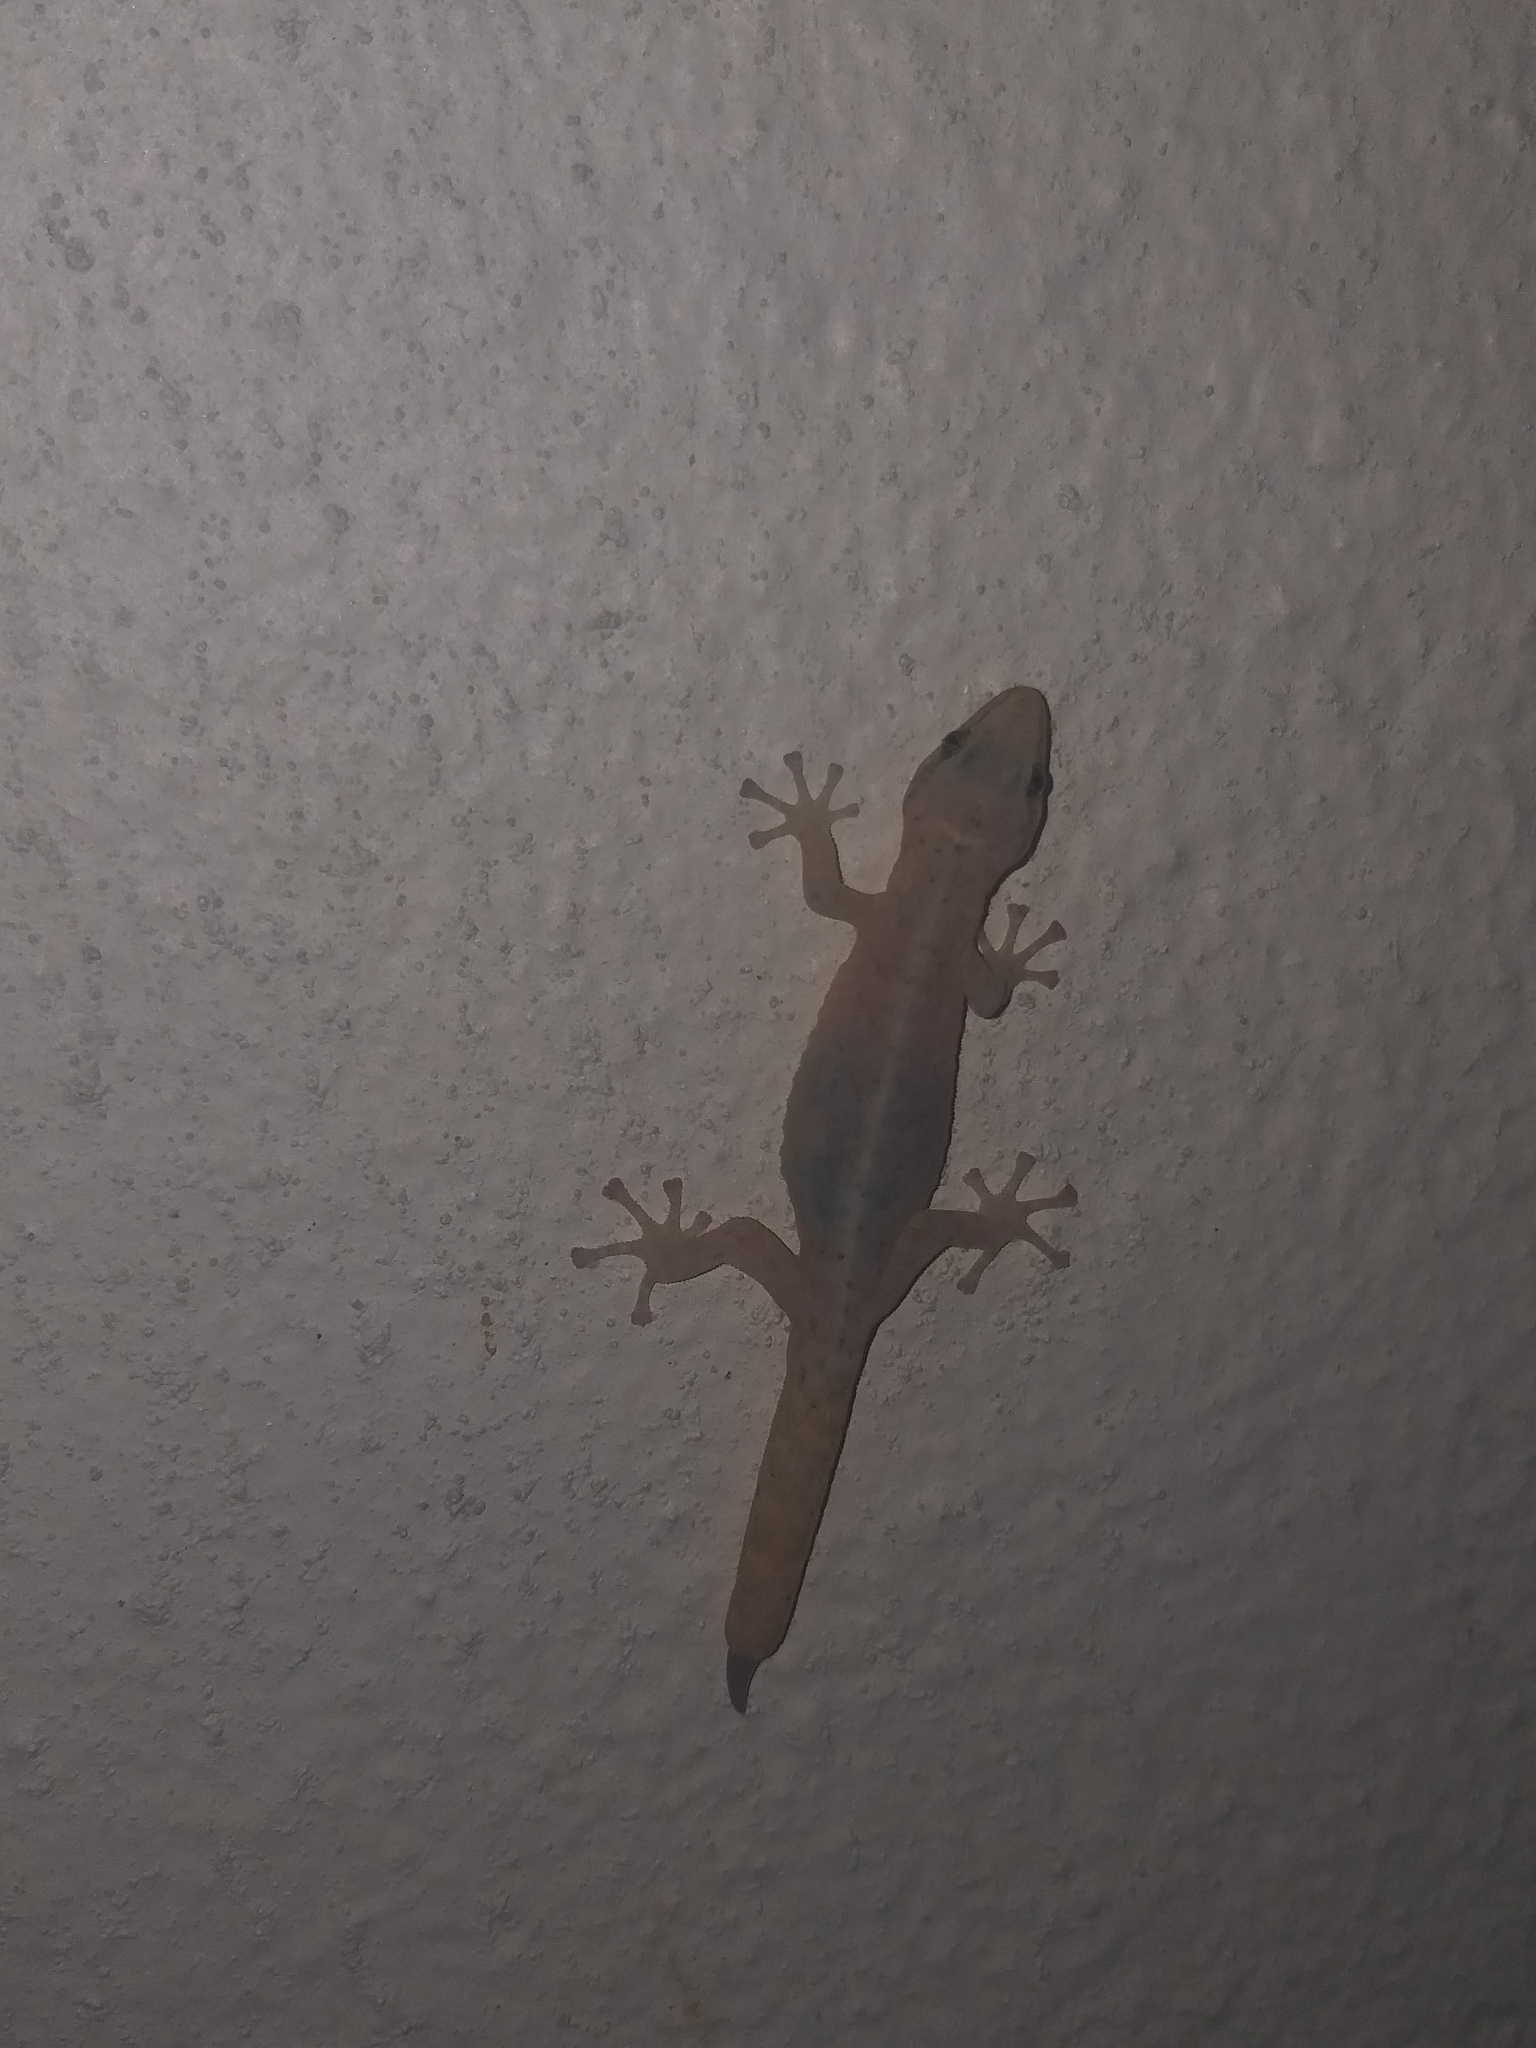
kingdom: Animalia
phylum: Chordata
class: Squamata
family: Gekkonidae
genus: Afrogecko
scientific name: Afrogecko porphyreus
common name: Marbled leaf-toed gecko
